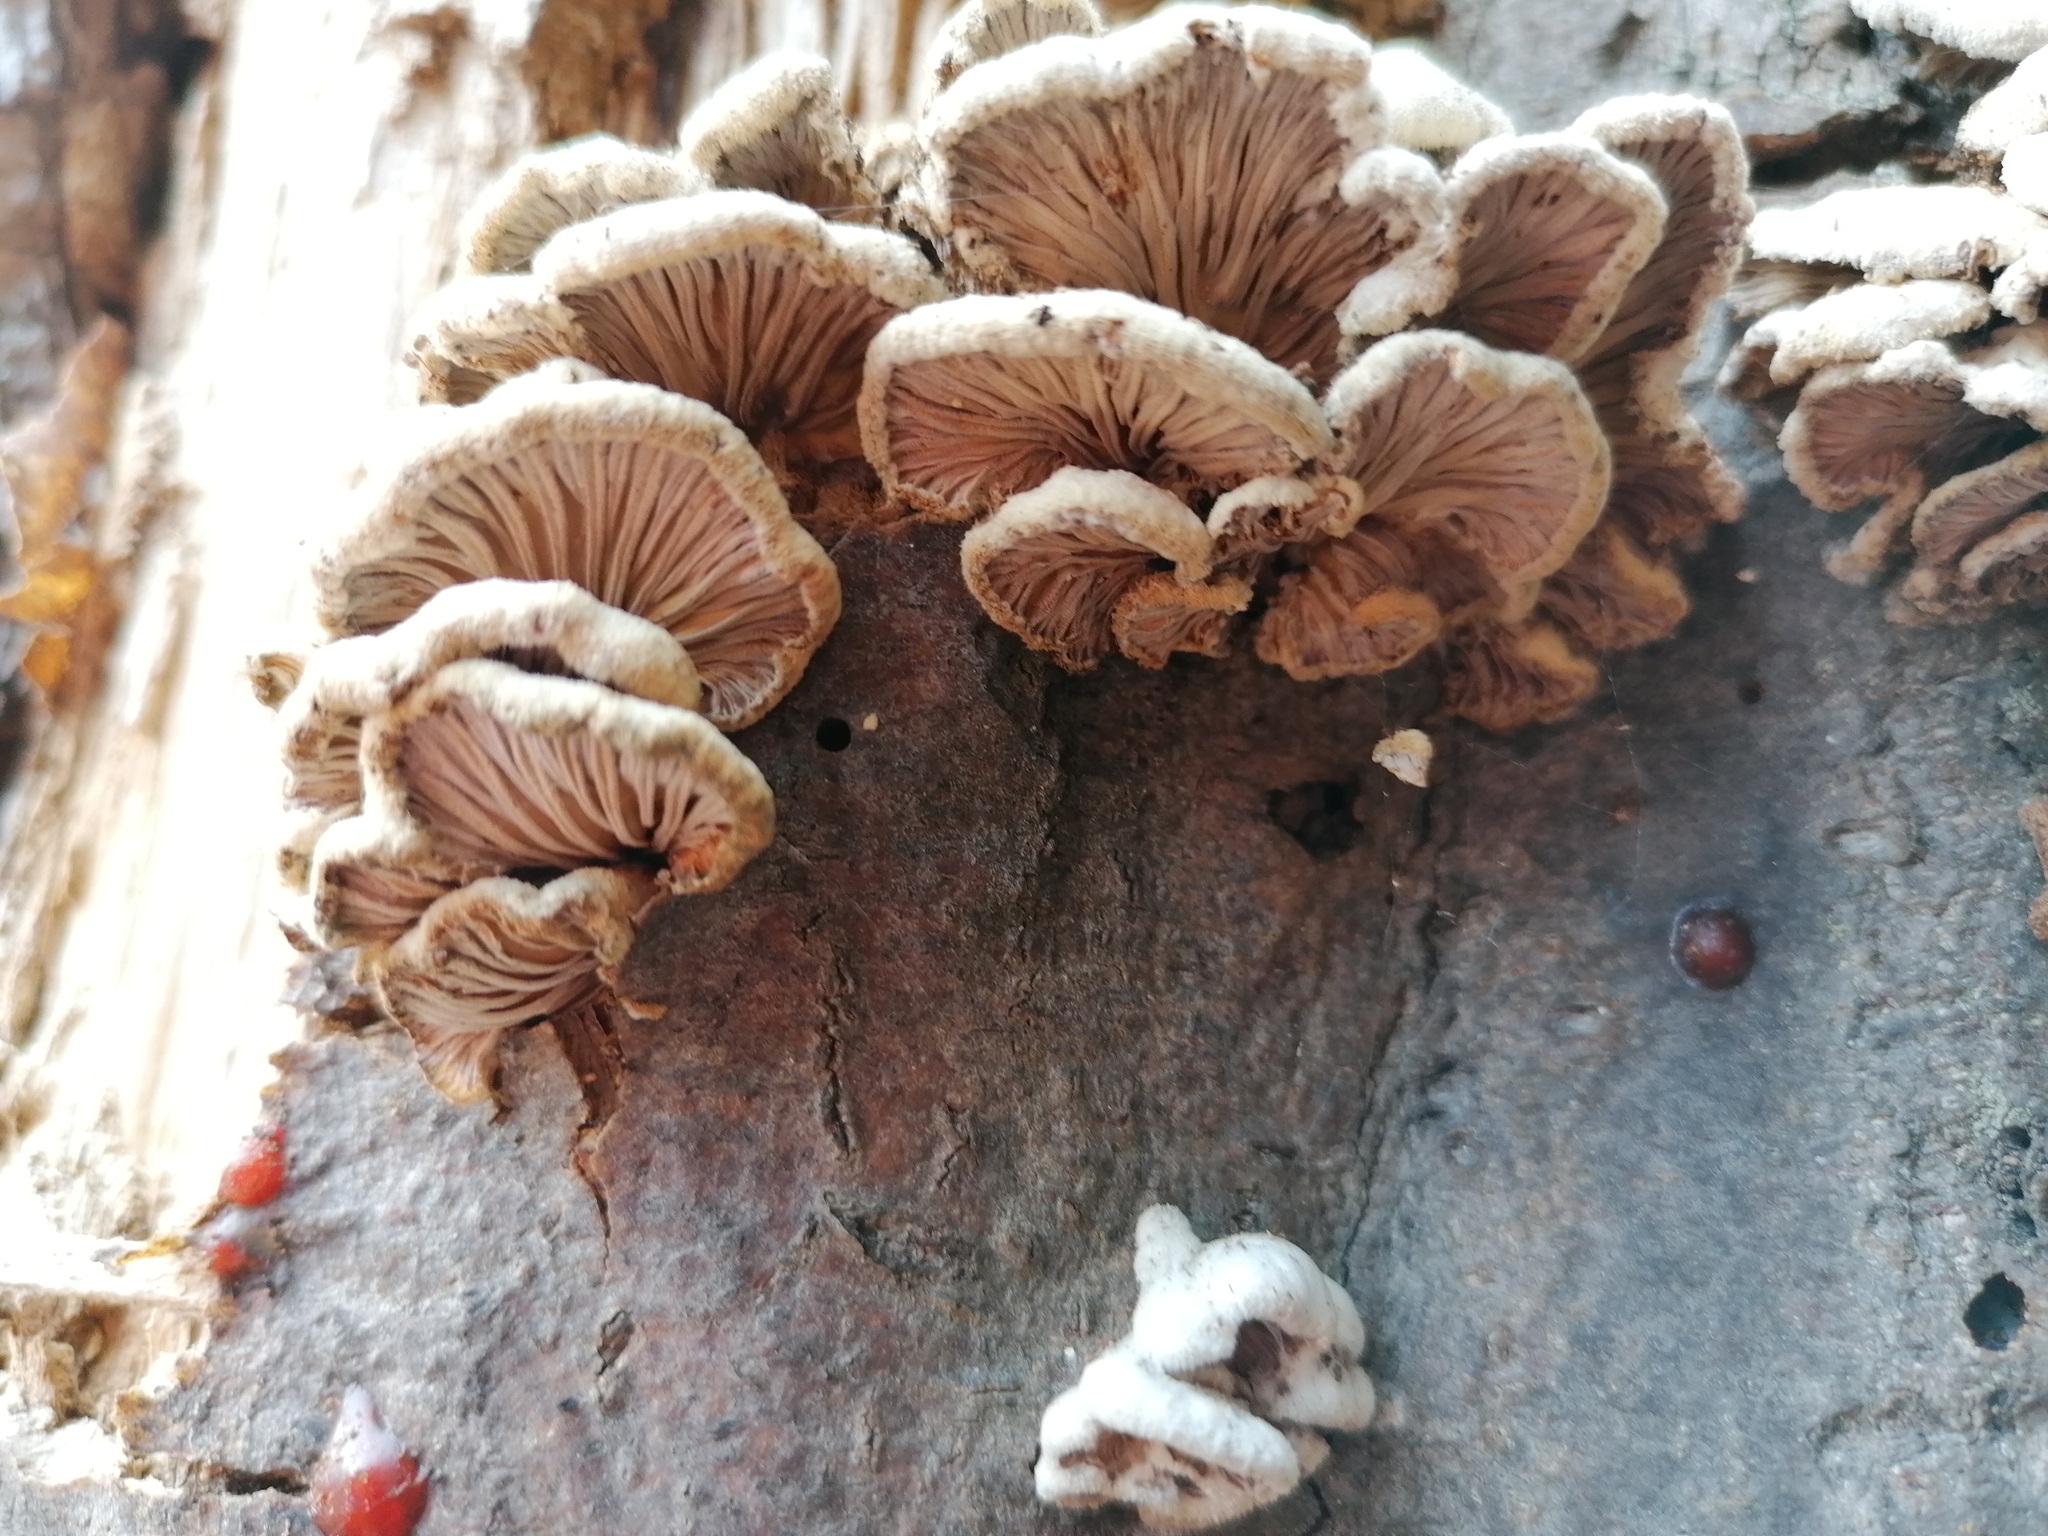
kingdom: Fungi
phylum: Basidiomycota
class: Agaricomycetes
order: Agaricales
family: Schizophyllaceae
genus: Schizophyllum
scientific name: Schizophyllum commune
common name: Common porecrust
